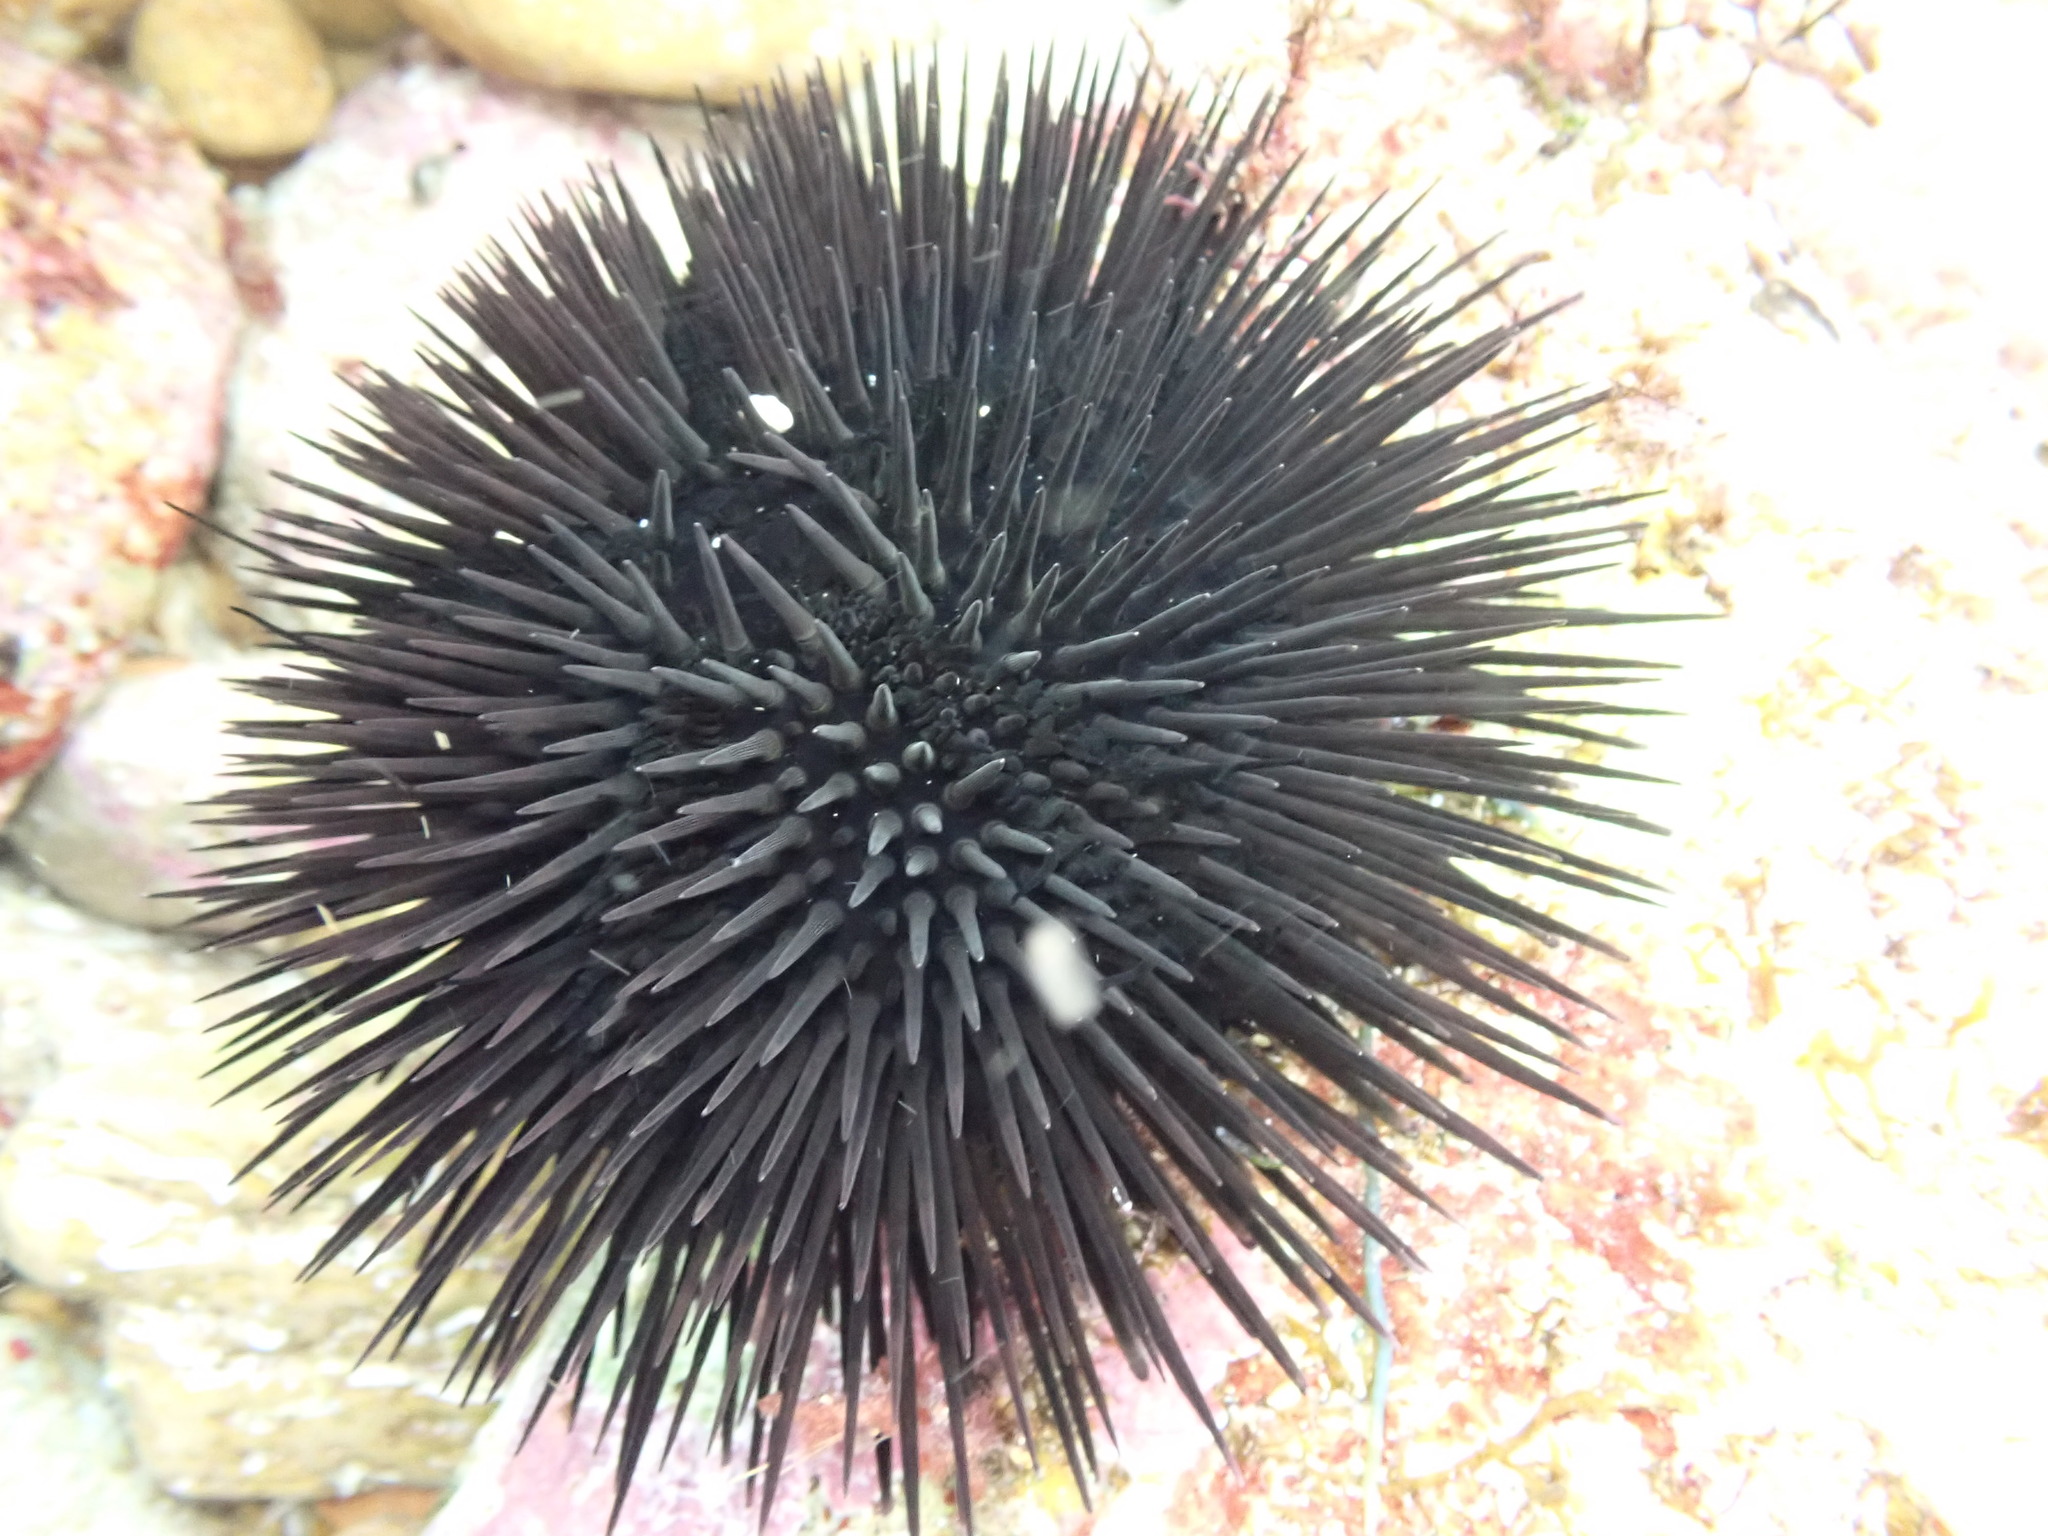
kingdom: Animalia
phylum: Echinodermata
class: Echinoidea
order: Arbacioida
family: Arbaciidae
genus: Arbacia
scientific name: Arbacia lixula
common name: Black sea urchin
